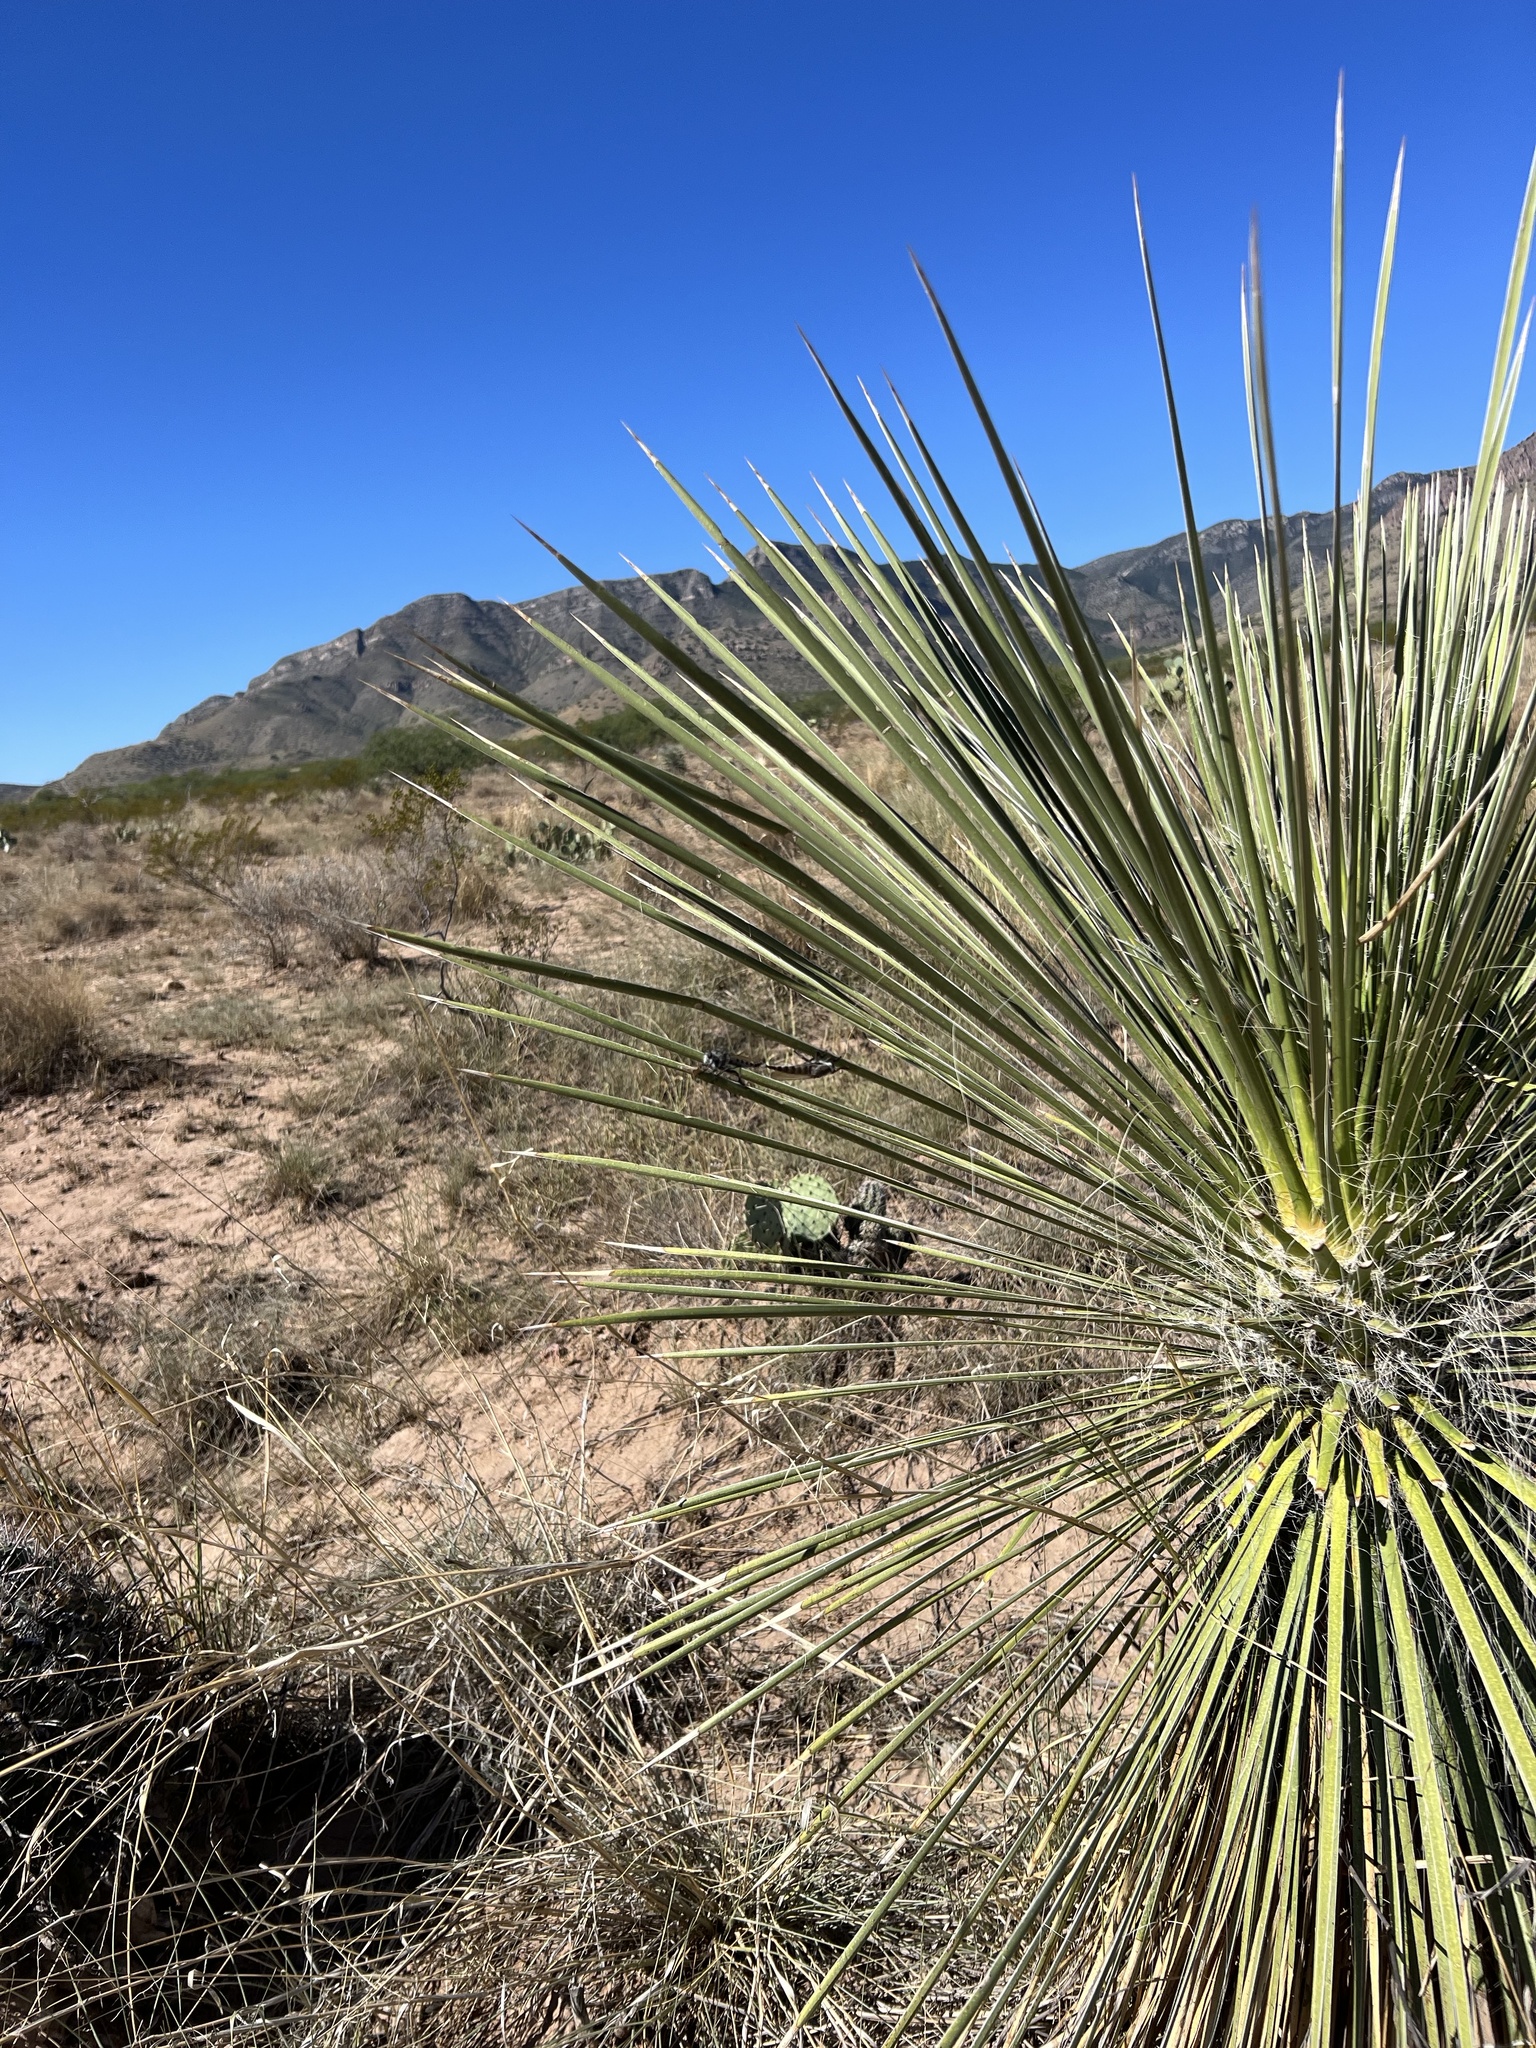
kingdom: Plantae
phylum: Tracheophyta
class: Liliopsida
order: Asparagales
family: Asparagaceae
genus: Yucca
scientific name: Yucca elata
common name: Palmella
